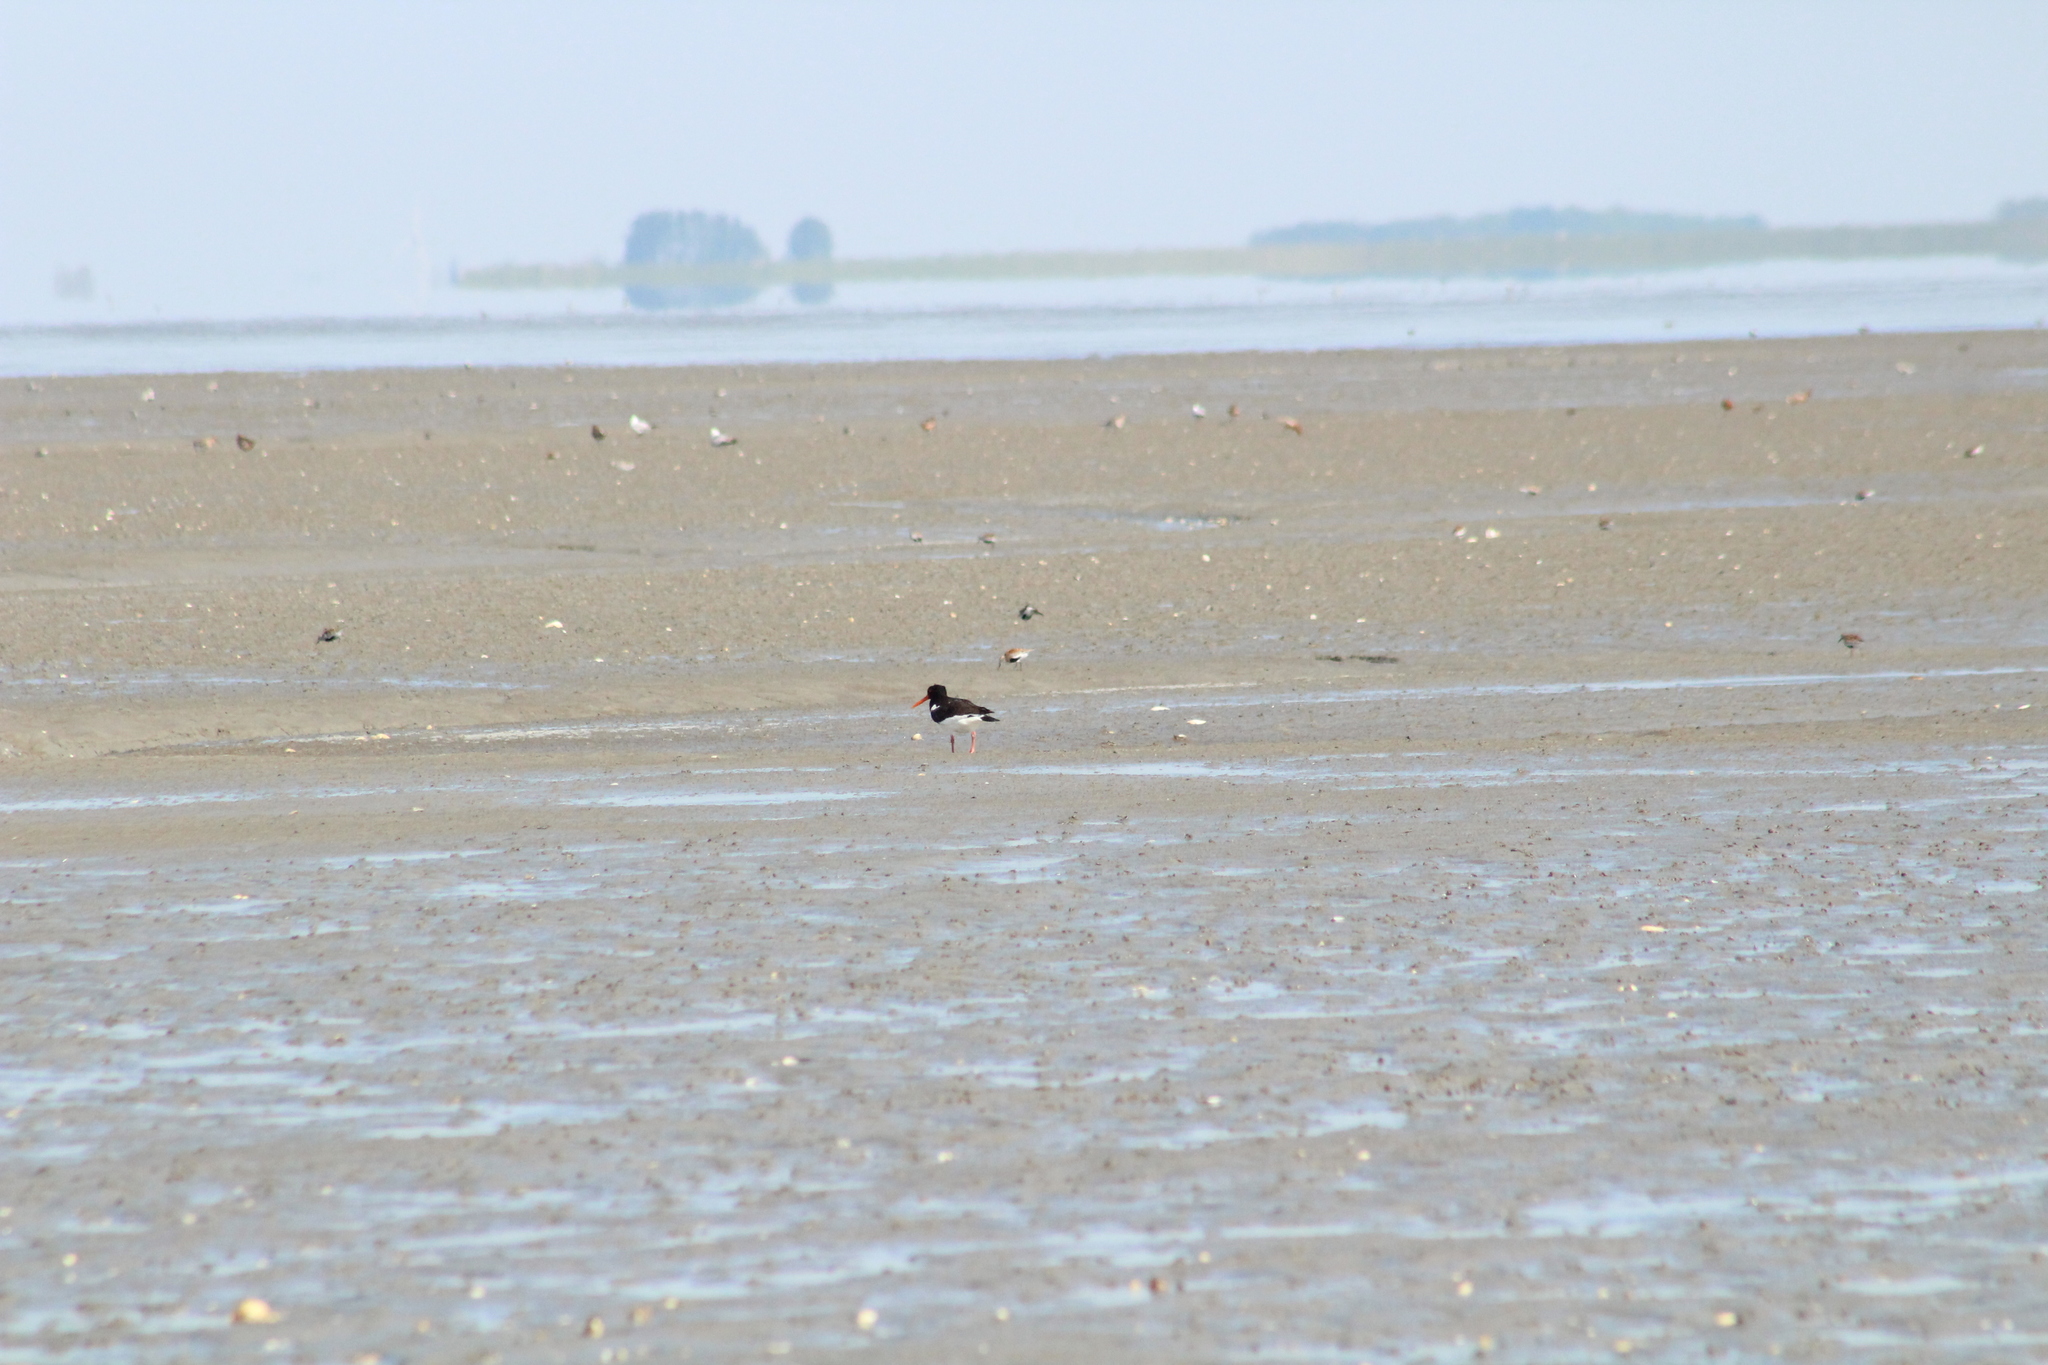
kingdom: Animalia
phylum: Chordata
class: Aves
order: Charadriiformes
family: Haematopodidae
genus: Haematopus
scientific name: Haematopus ostralegus
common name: Eurasian oystercatcher
